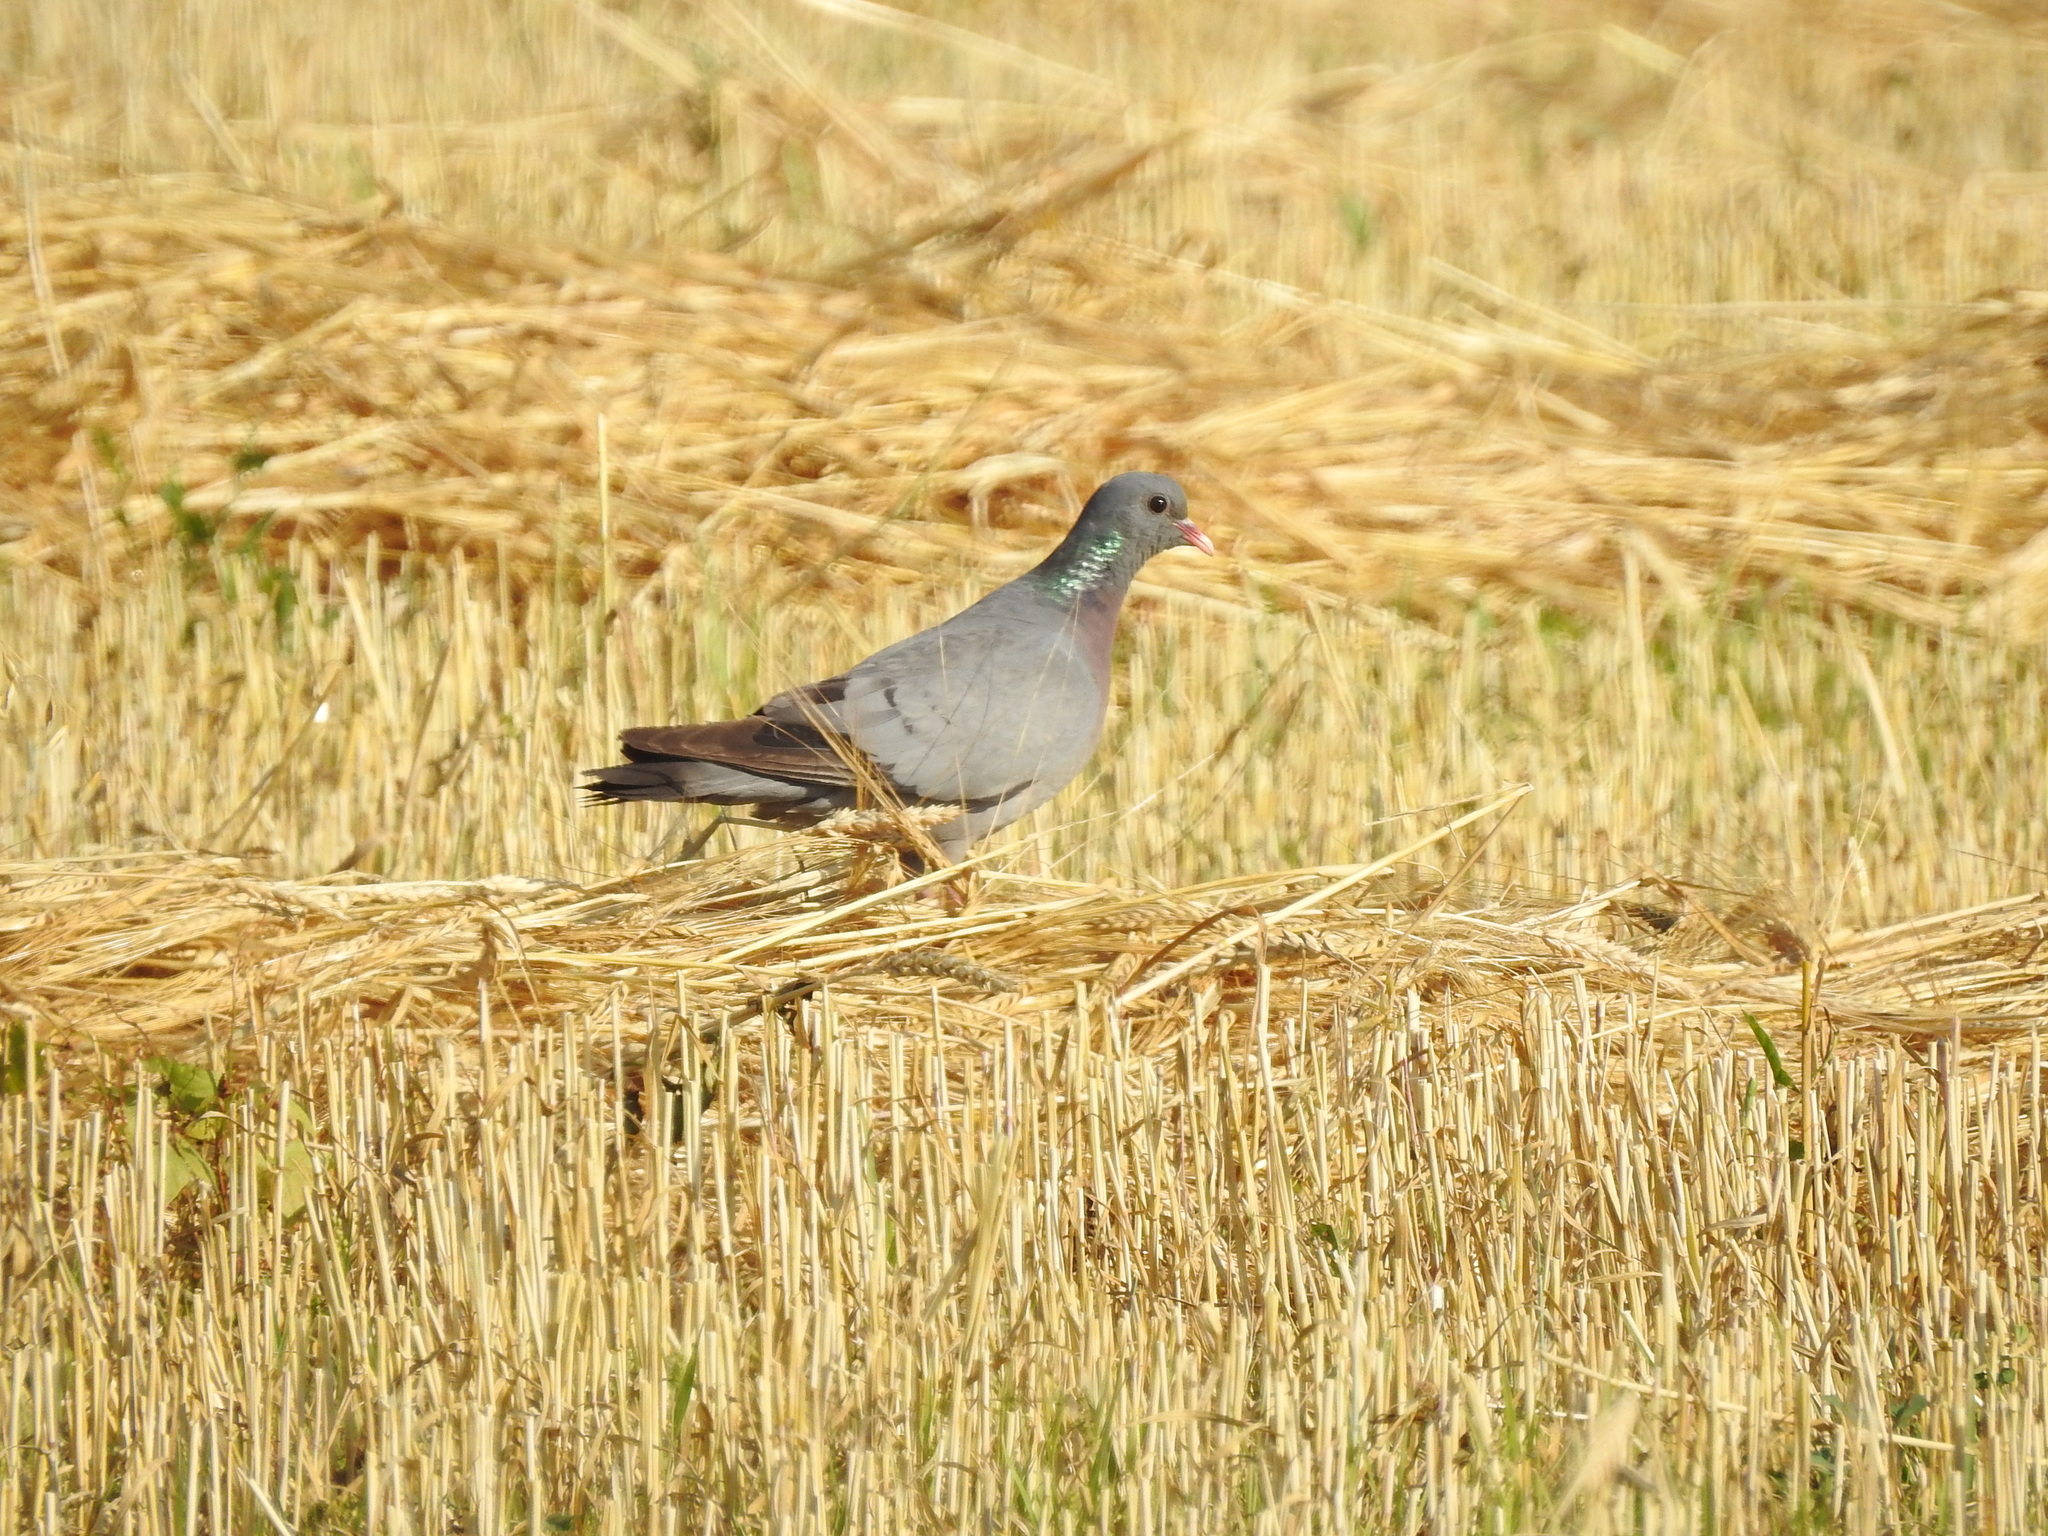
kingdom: Animalia
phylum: Chordata
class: Aves
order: Columbiformes
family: Columbidae
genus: Columba
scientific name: Columba oenas
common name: Stock dove
